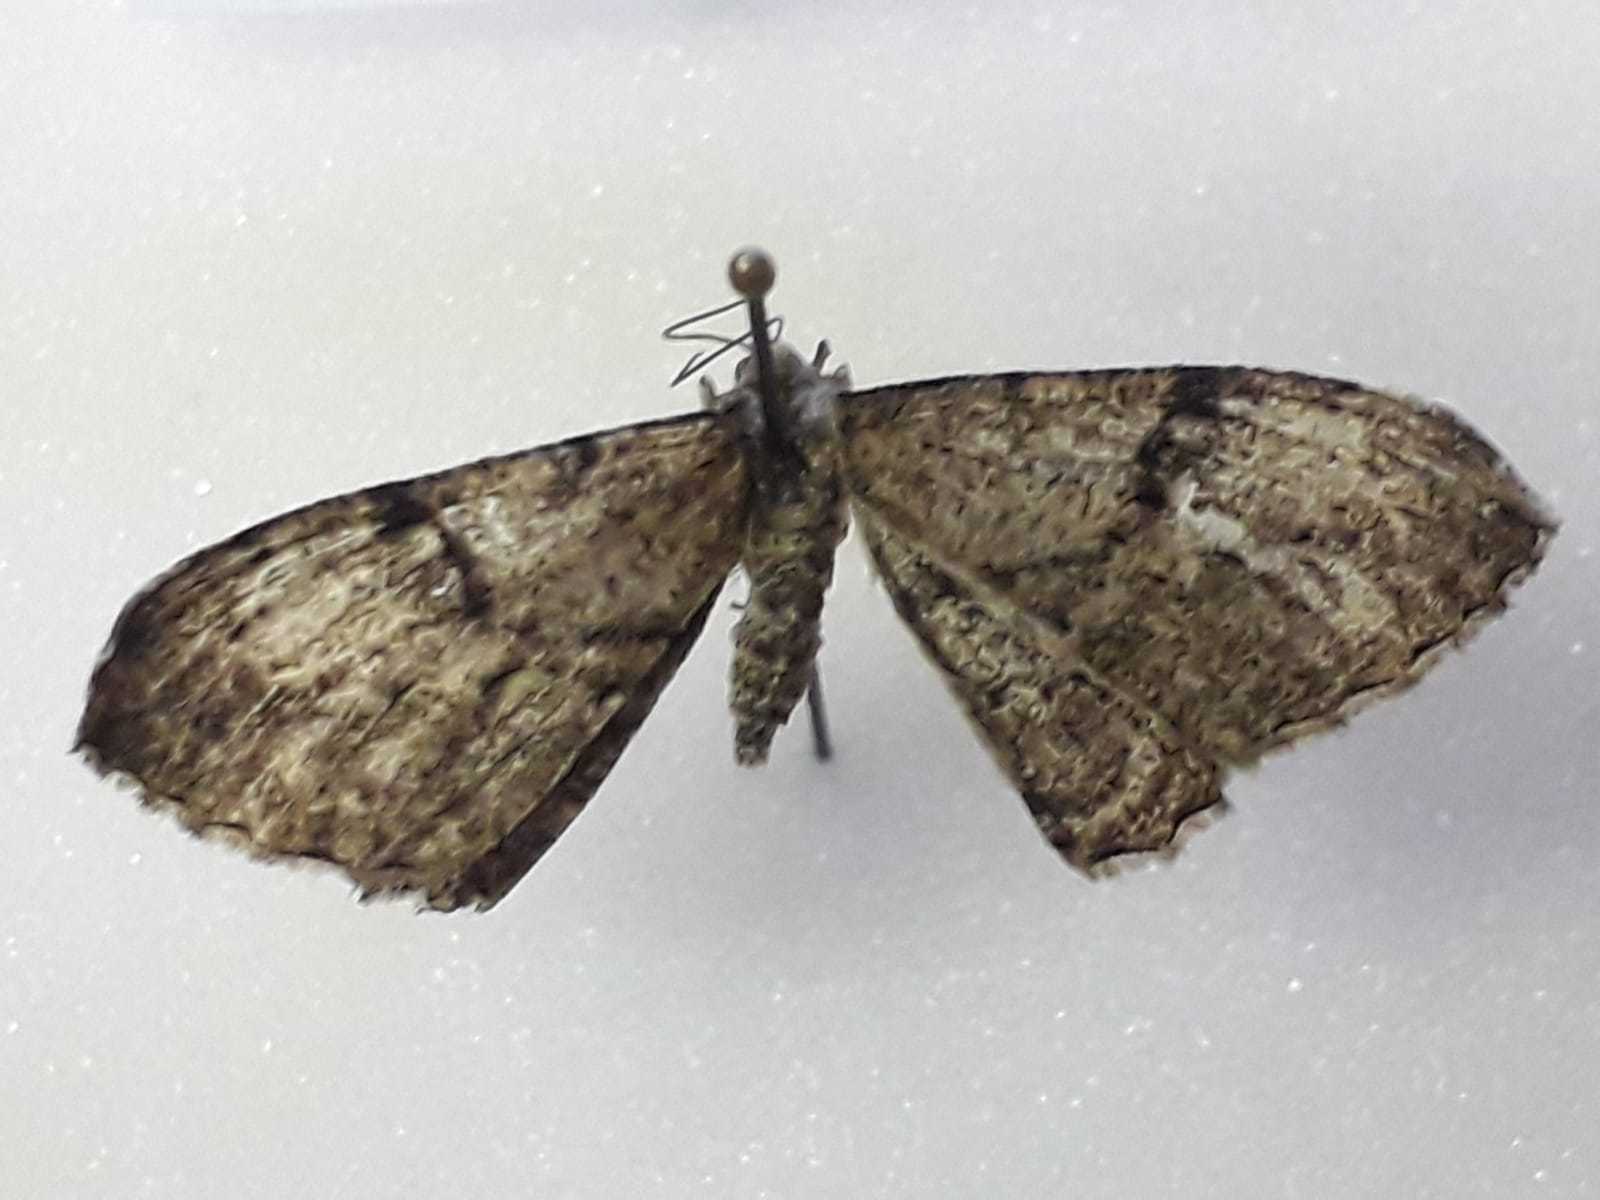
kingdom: Animalia
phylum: Arthropoda
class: Insecta
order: Lepidoptera
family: Geometridae
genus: Peribatodes
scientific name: Peribatodes rhomboidaria
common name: Willow beauty
